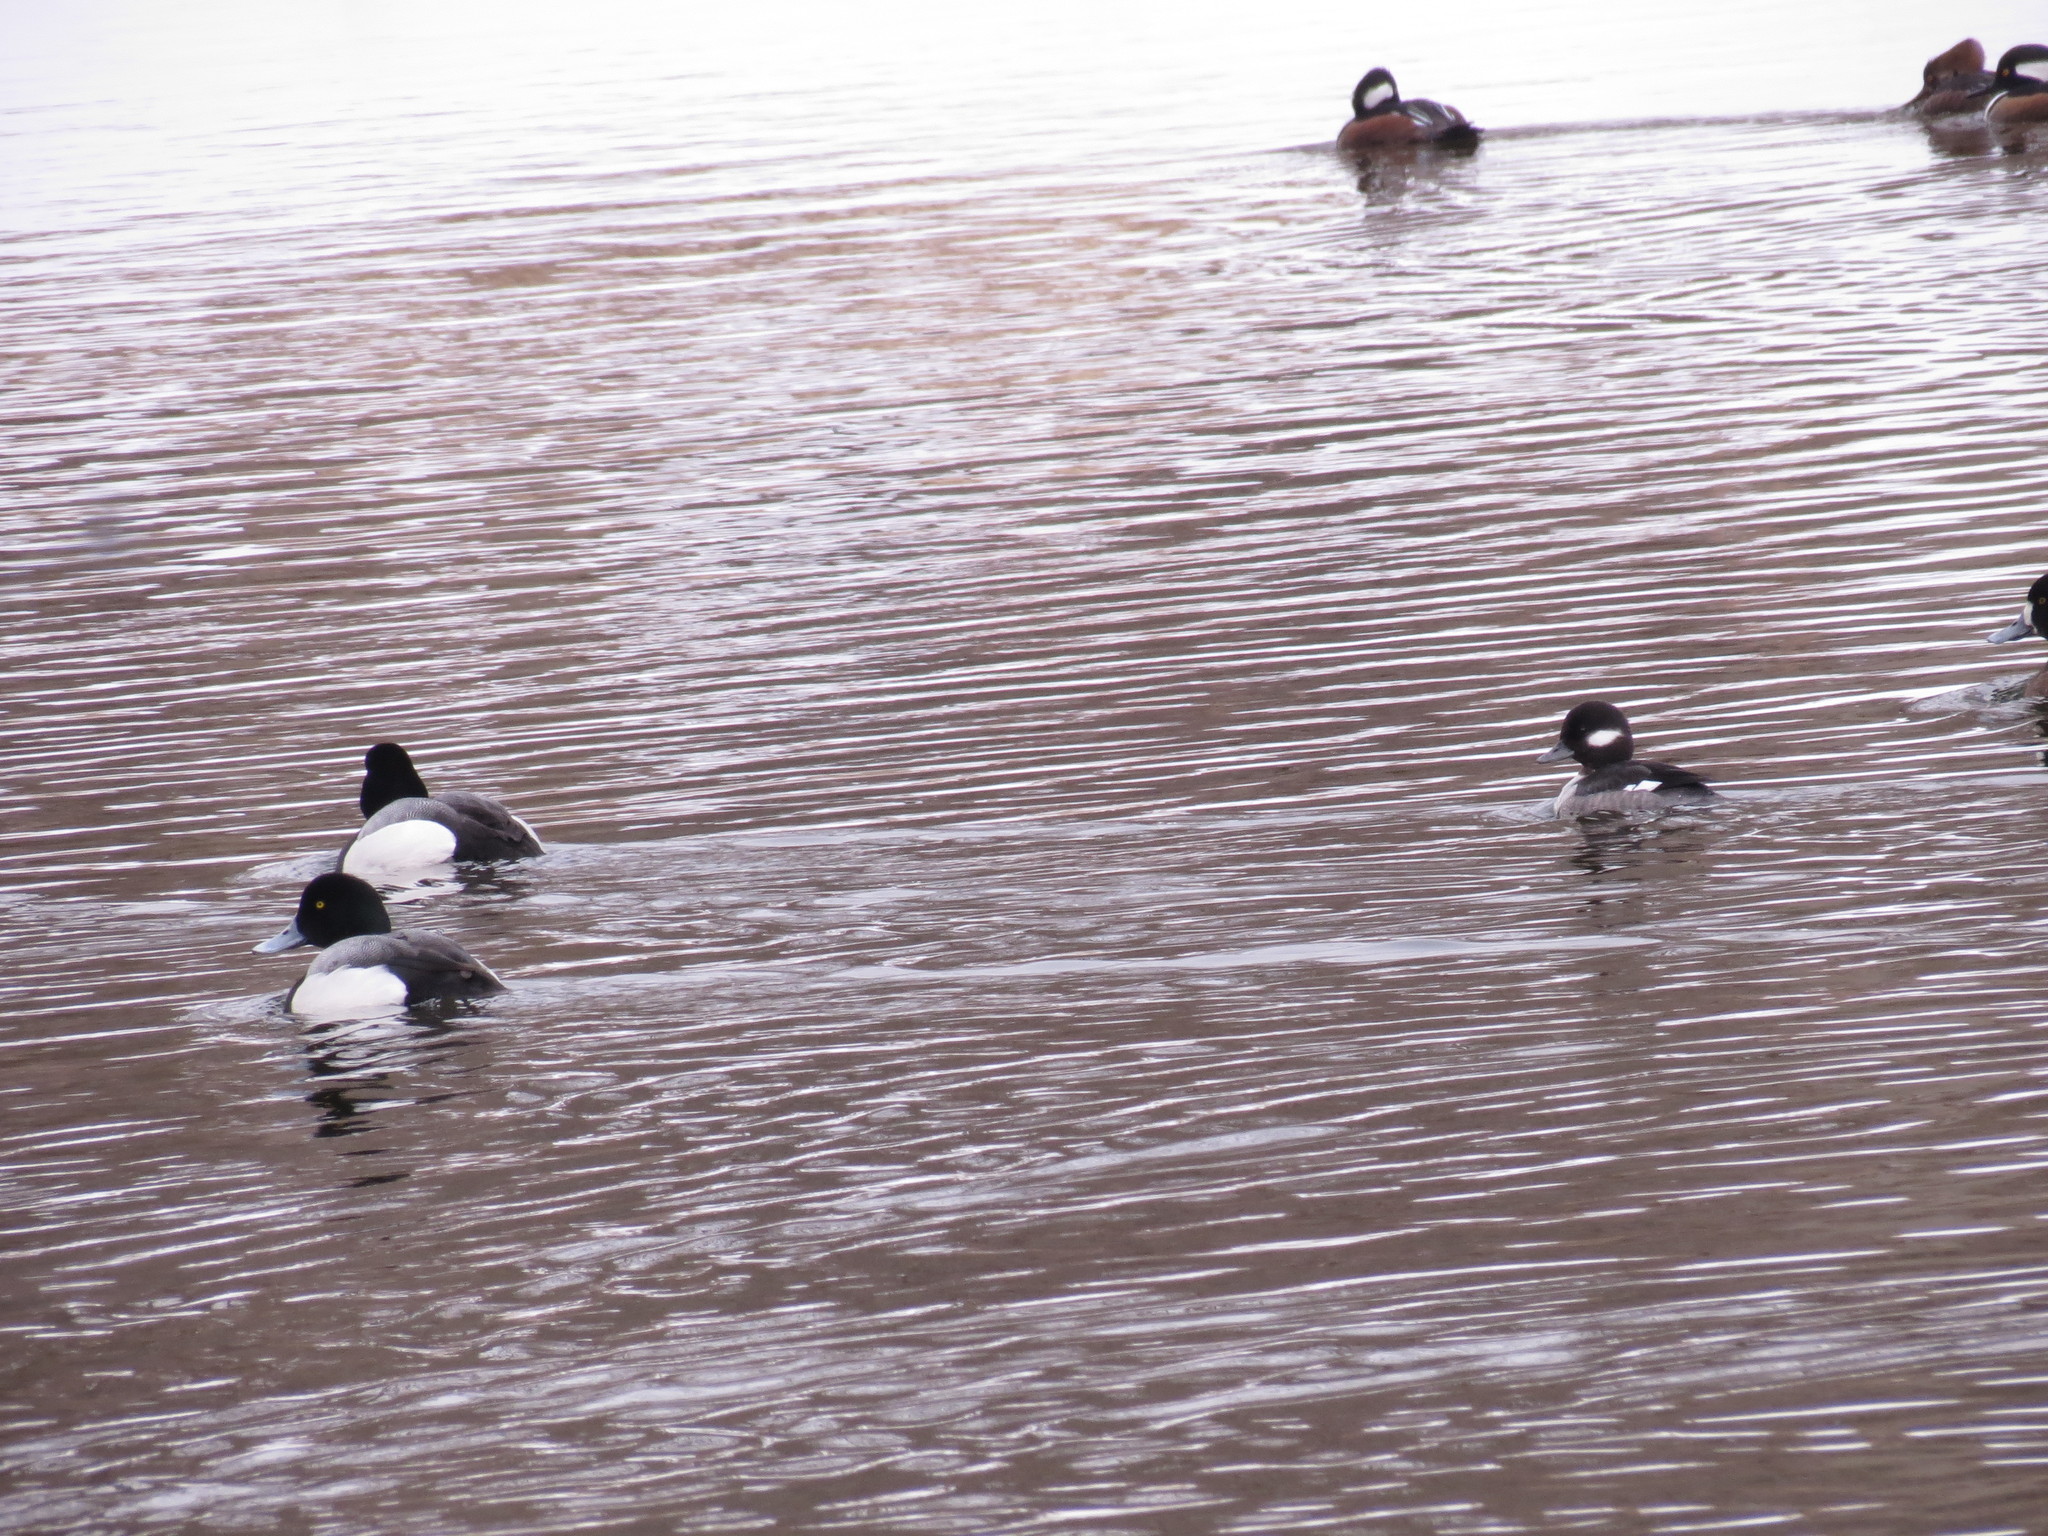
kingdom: Animalia
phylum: Chordata
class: Aves
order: Anseriformes
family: Anatidae
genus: Bucephala
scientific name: Bucephala albeola
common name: Bufflehead
